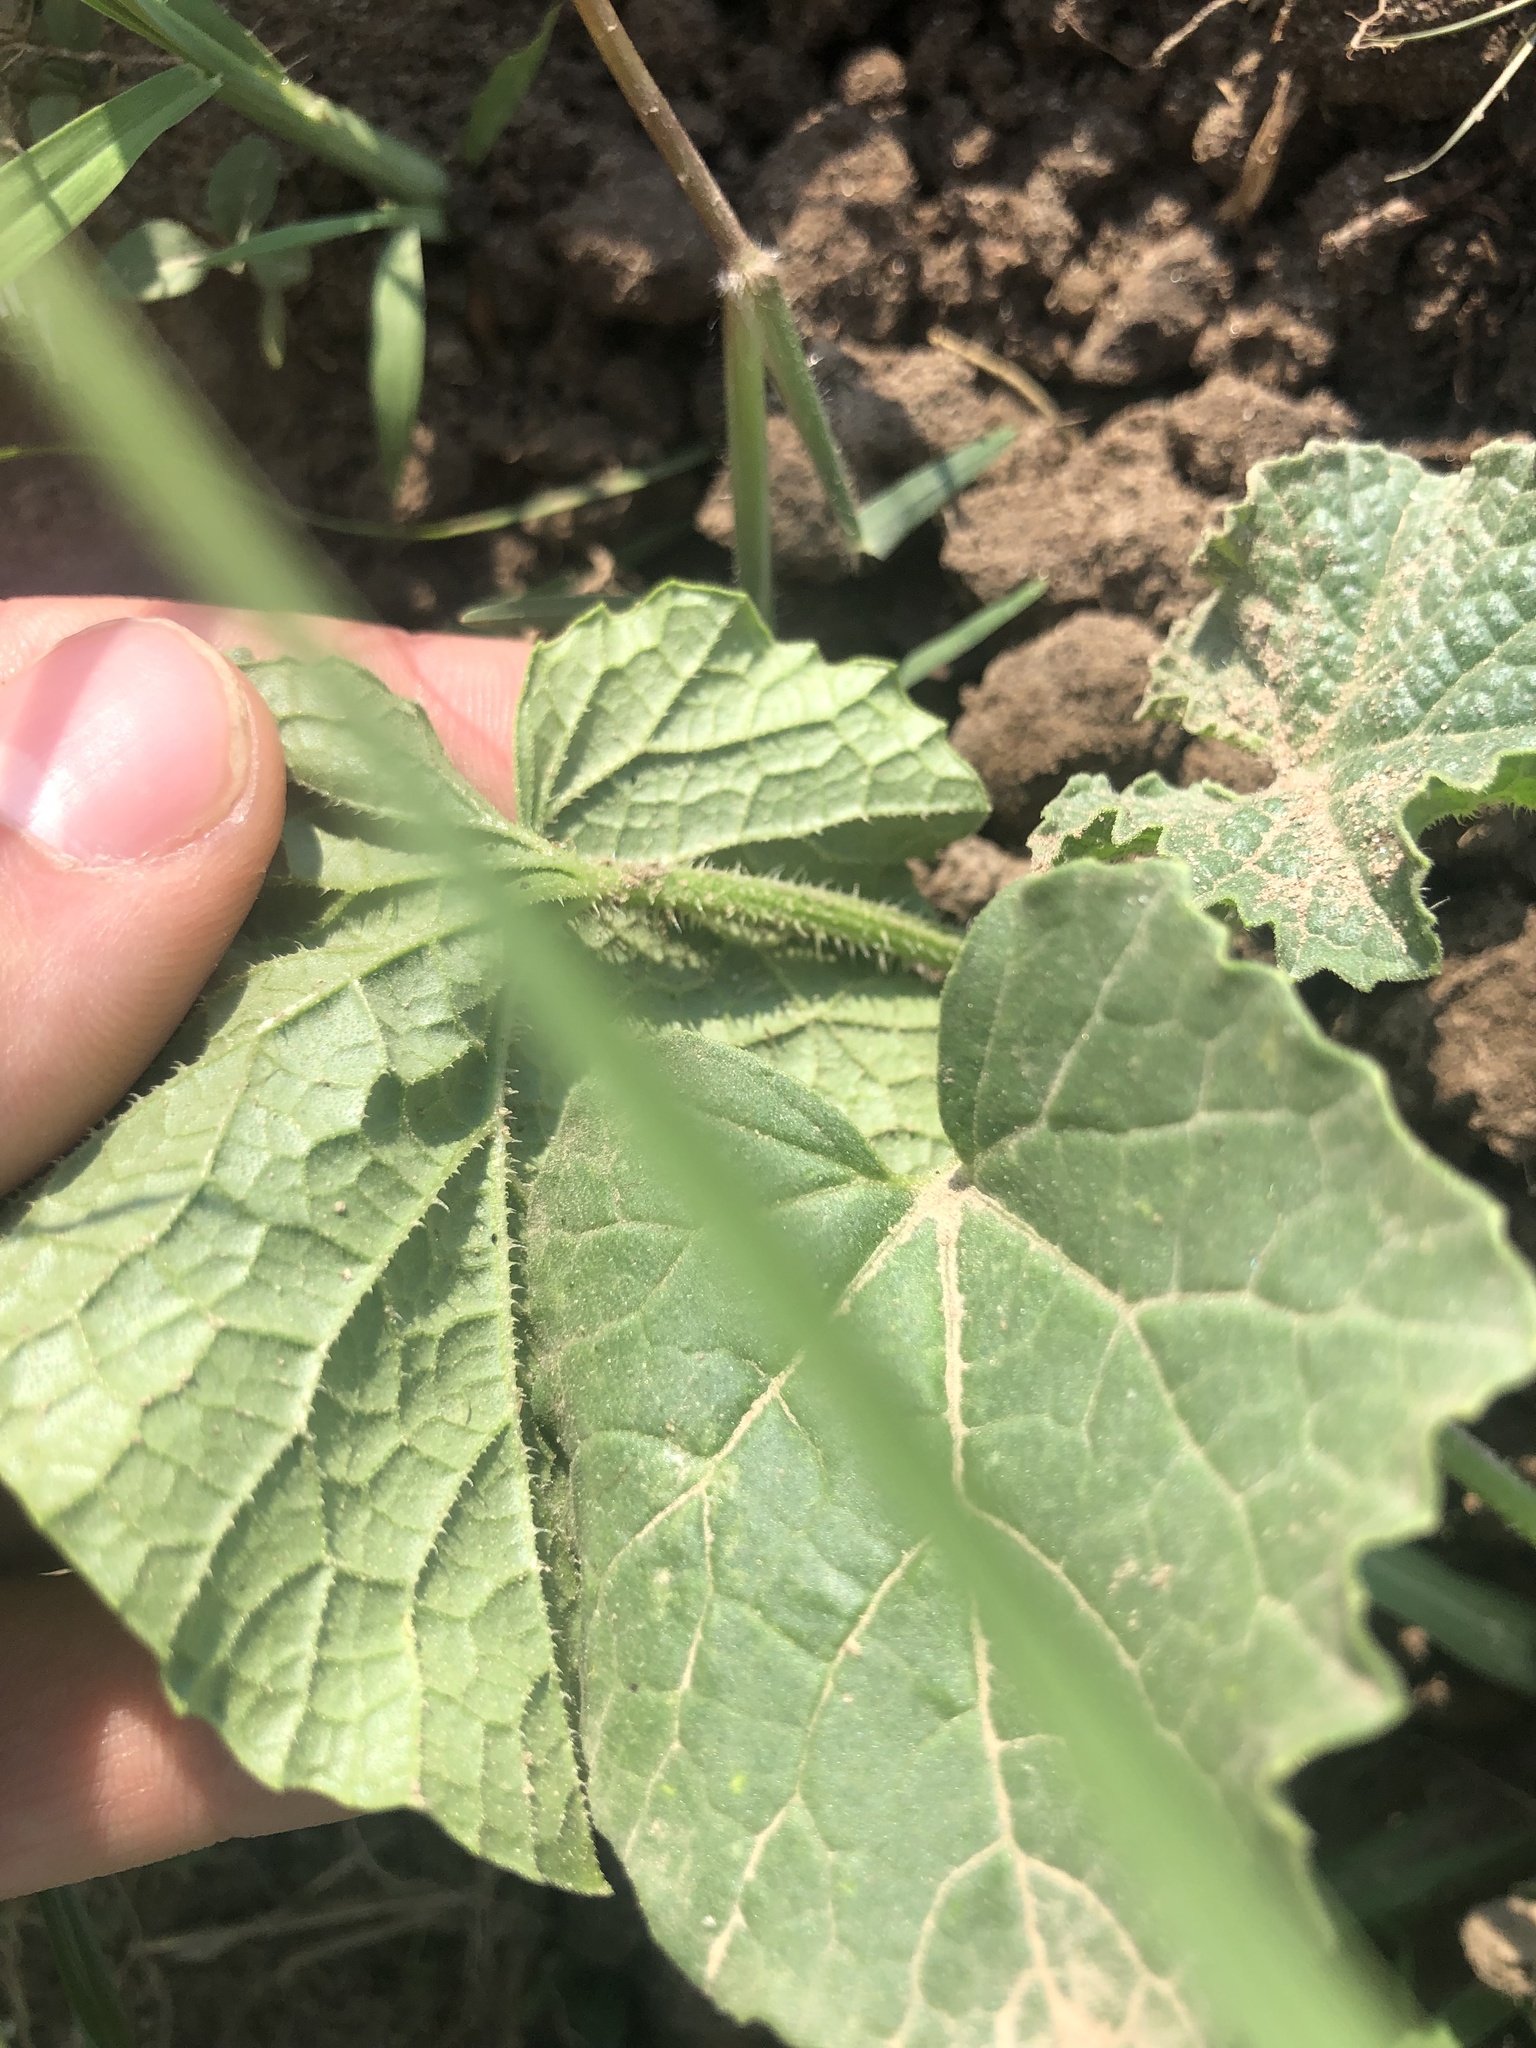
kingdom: Plantae
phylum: Tracheophyta
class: Magnoliopsida
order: Cucurbitales
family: Cucurbitaceae
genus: Cucumis
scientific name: Cucumis melo
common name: Melon
